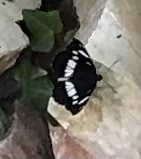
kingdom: Animalia
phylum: Arthropoda
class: Insecta
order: Lepidoptera
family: Nymphalidae
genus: Limenitis
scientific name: Limenitis reducta
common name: Southern white admiral
